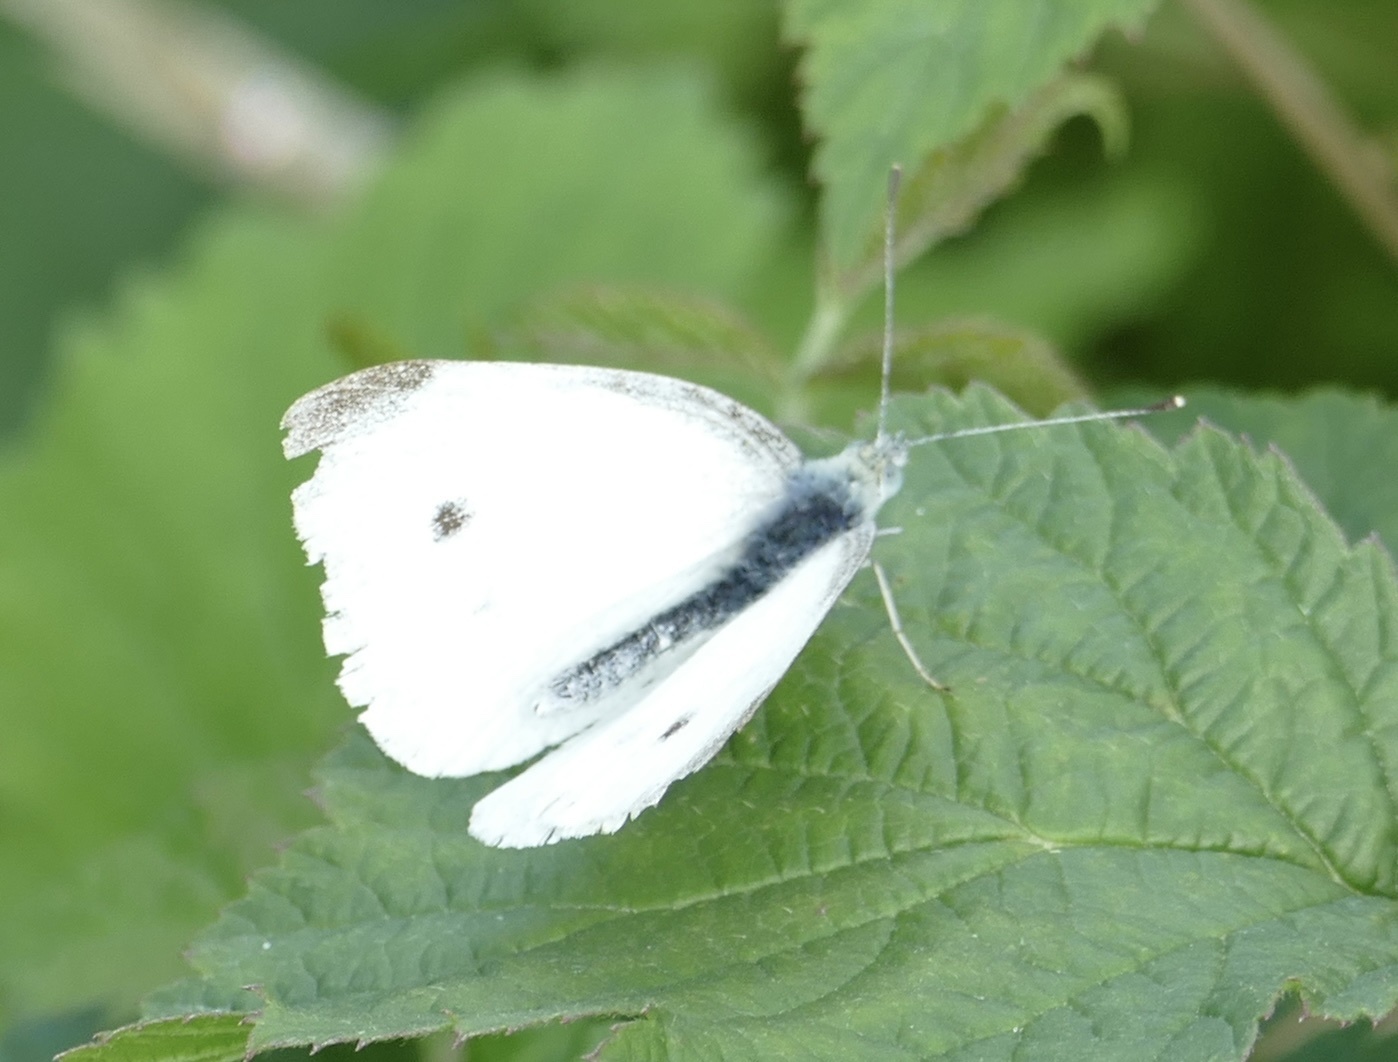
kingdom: Animalia
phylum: Arthropoda
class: Insecta
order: Lepidoptera
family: Pieridae
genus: Pieris
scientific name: Pieris rapae
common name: Small white
